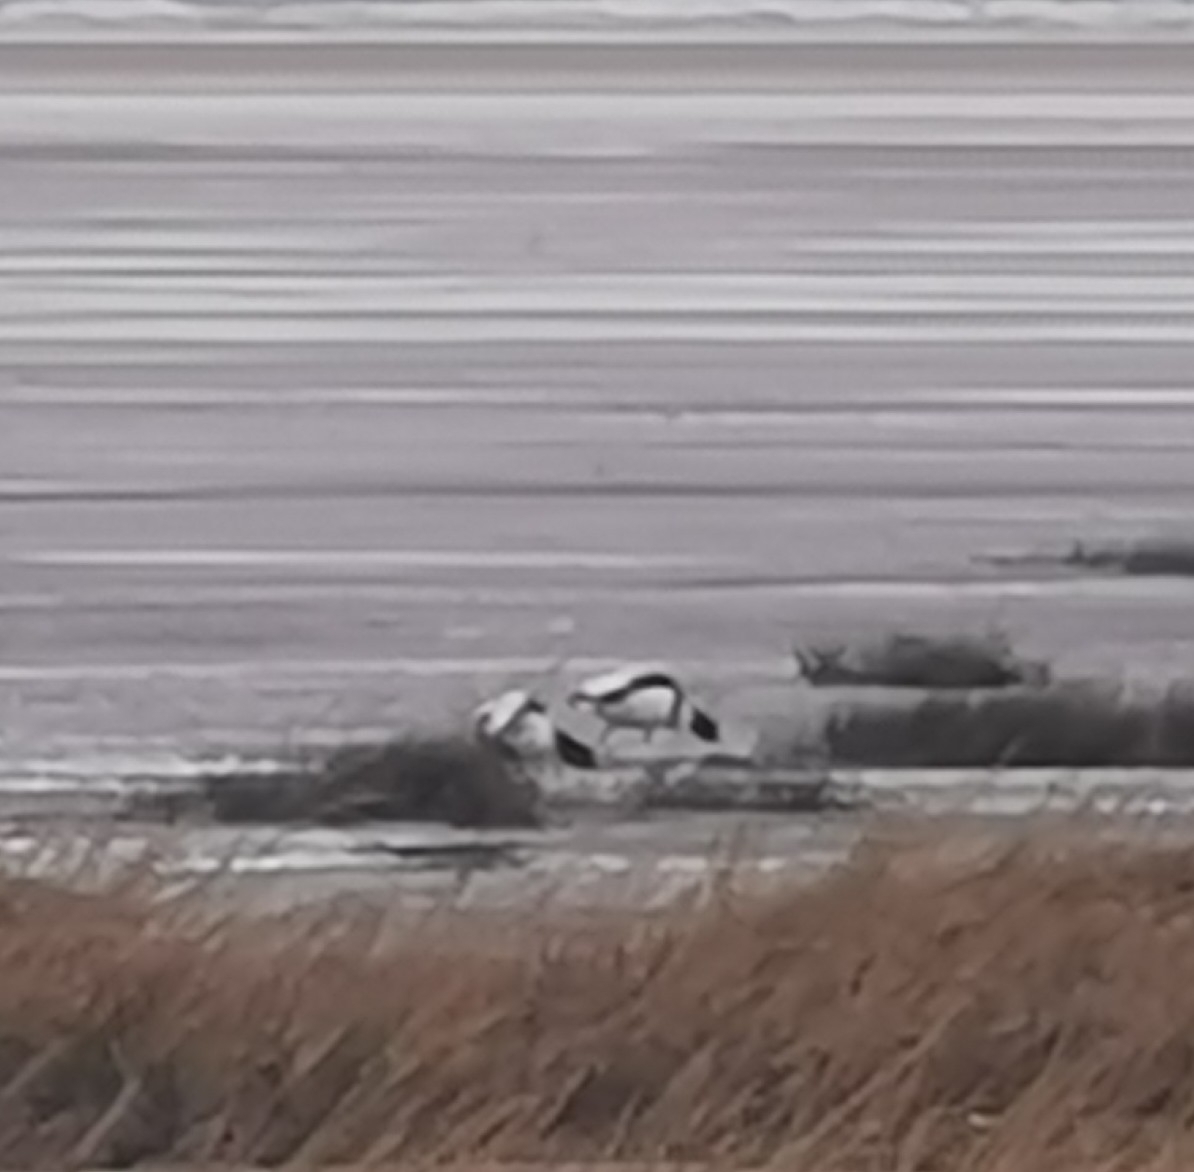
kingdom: Animalia
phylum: Chordata
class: Aves
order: Anseriformes
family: Anatidae
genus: Tadorna
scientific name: Tadorna tadorna
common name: Common shelduck
